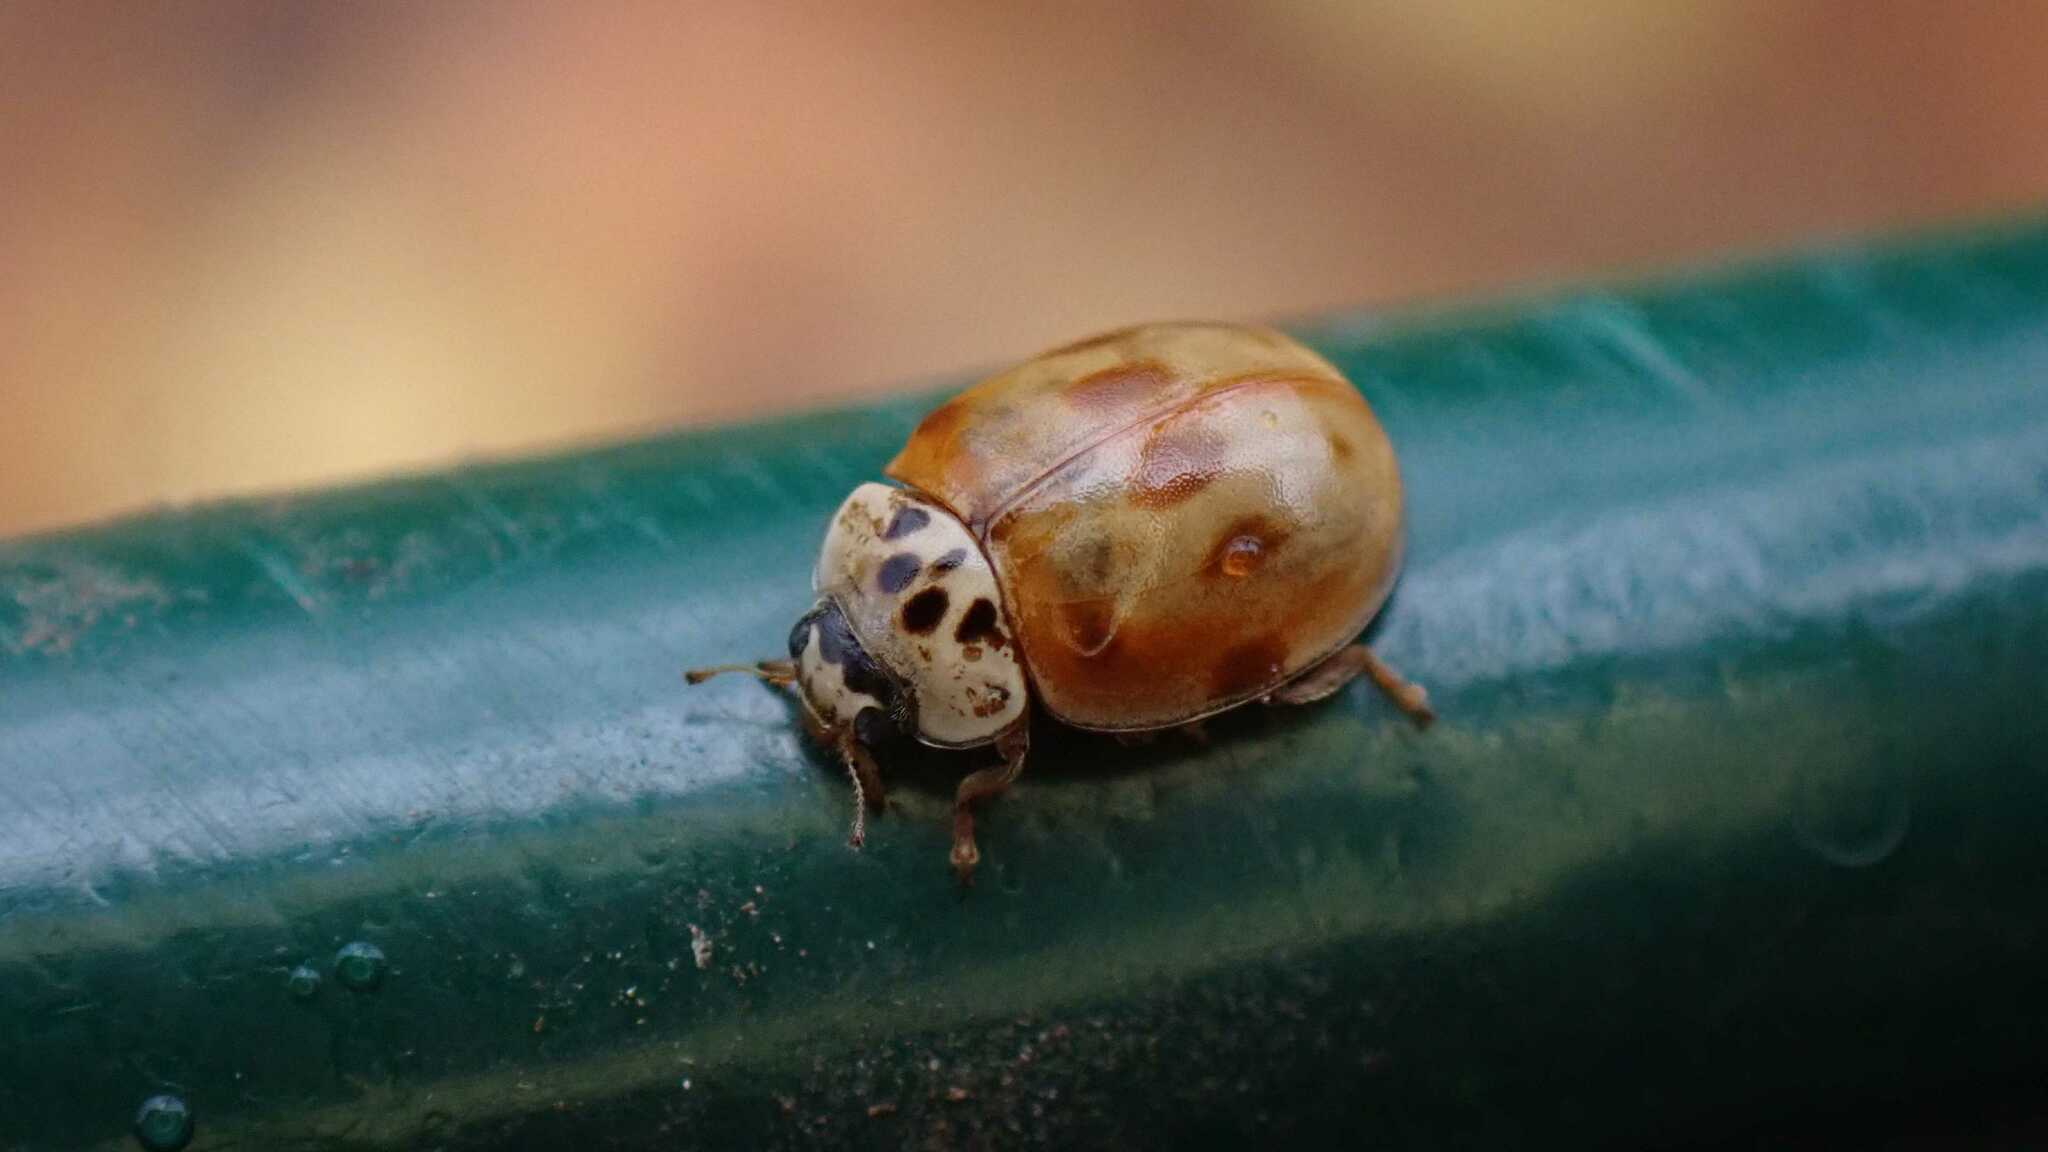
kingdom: Animalia
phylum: Arthropoda
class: Insecta
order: Coleoptera
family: Coccinellidae
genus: Adalia
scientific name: Adalia decempunctata
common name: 10-spot ladybird
